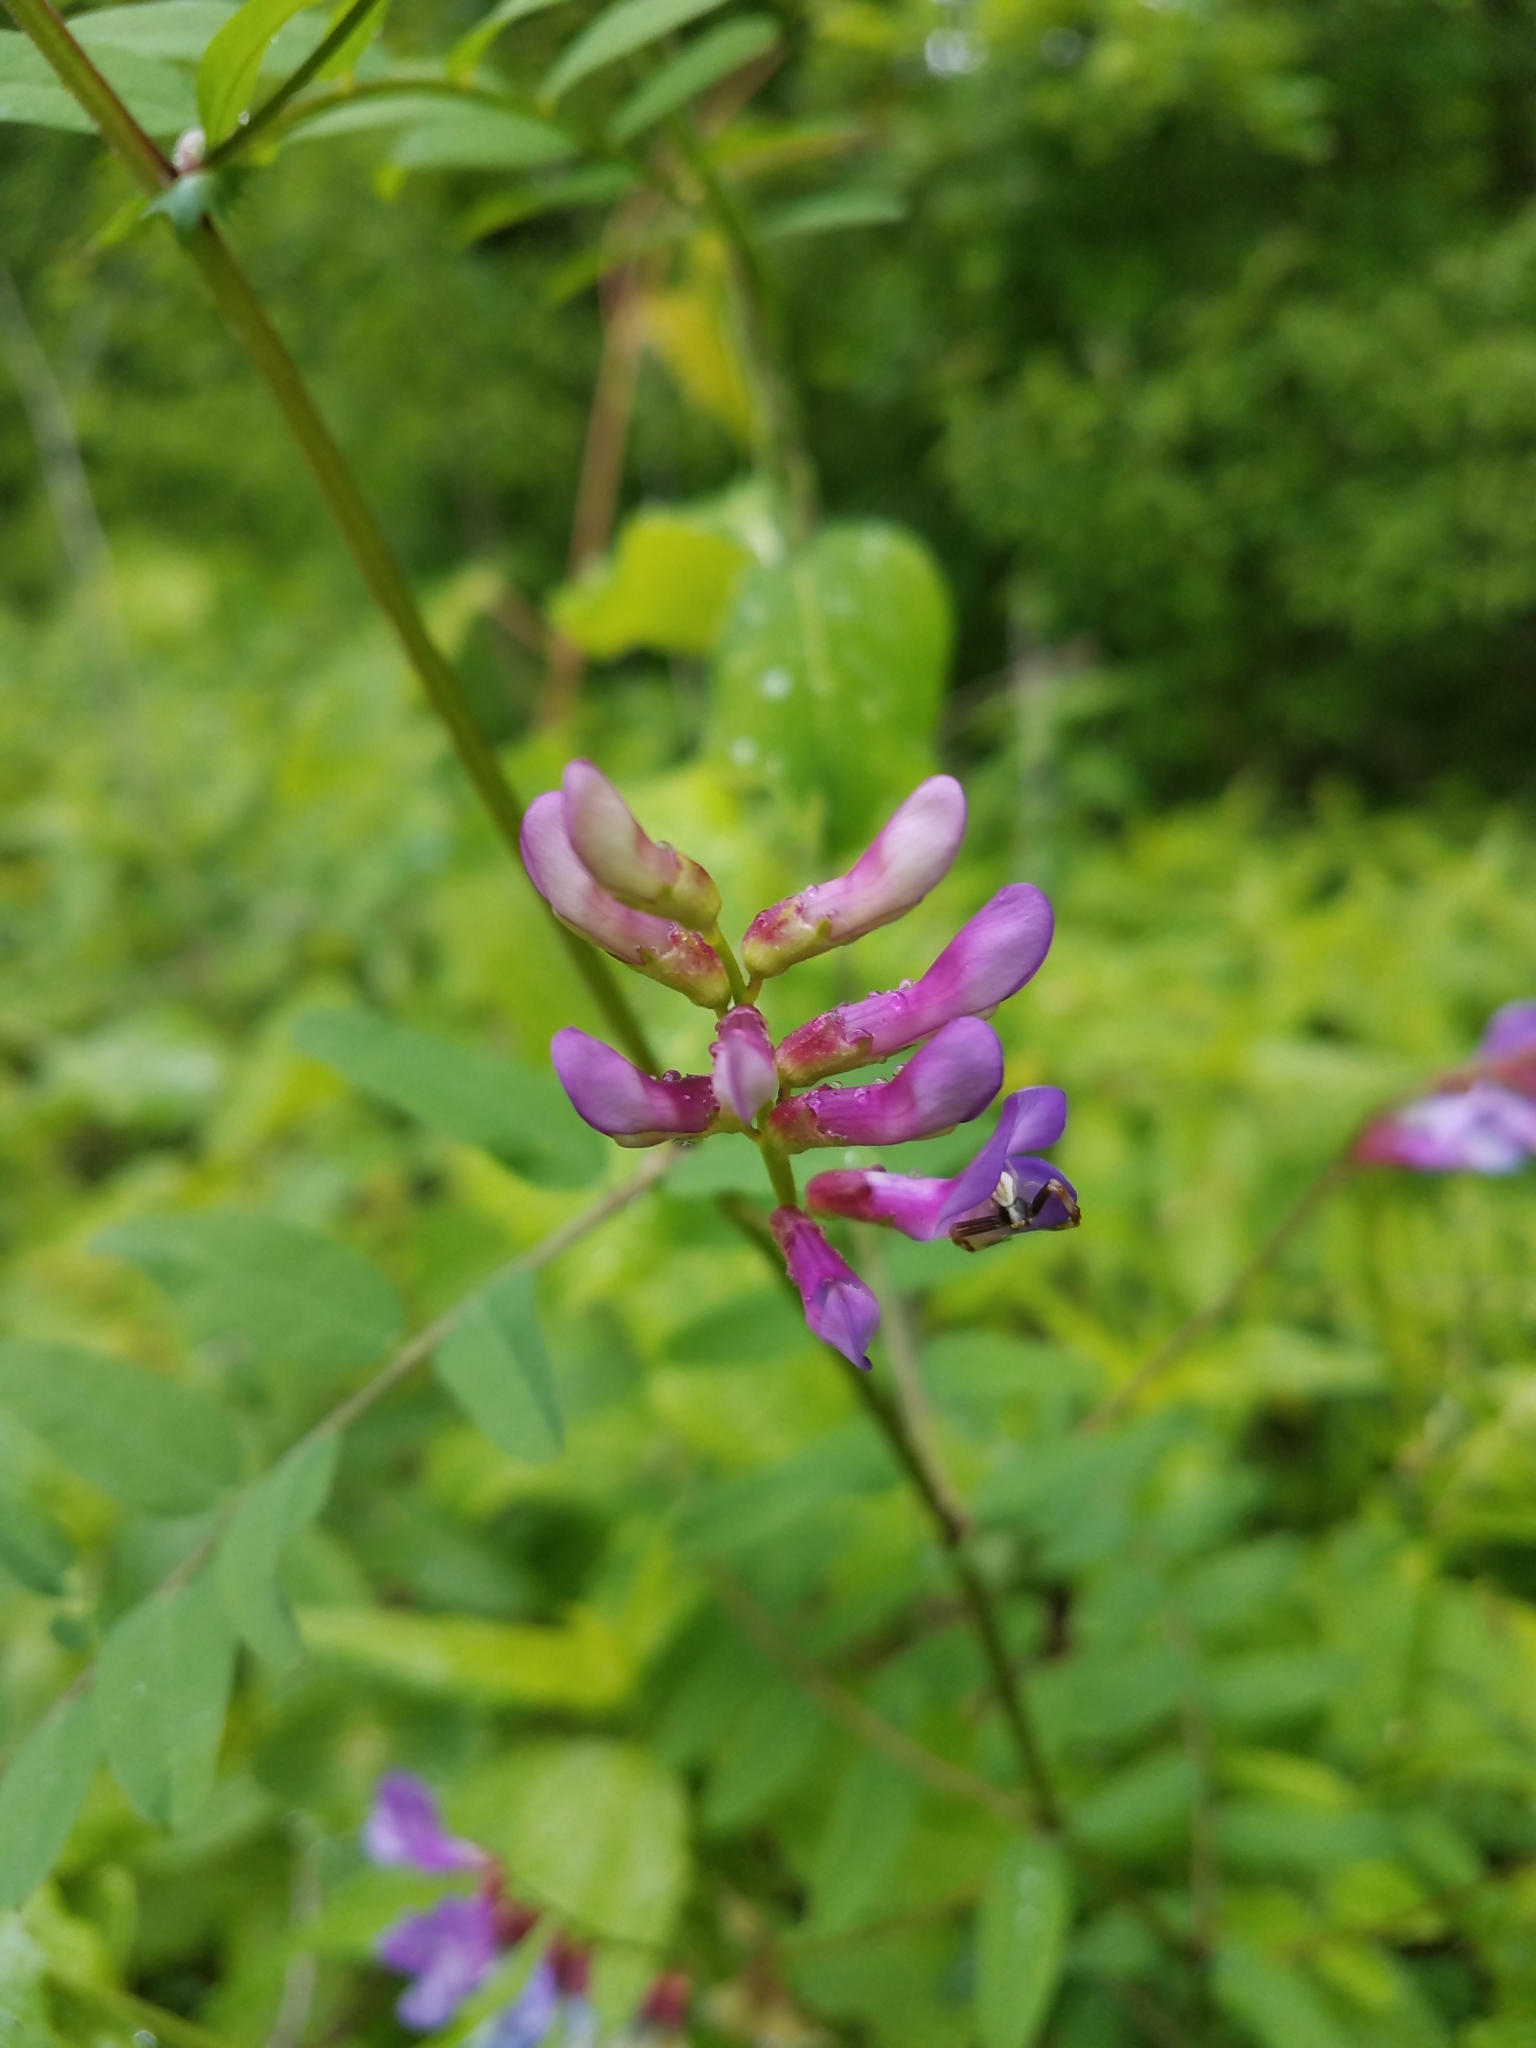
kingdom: Plantae
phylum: Tracheophyta
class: Magnoliopsida
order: Fabales
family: Fabaceae
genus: Vicia
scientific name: Vicia americana
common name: American vetch
